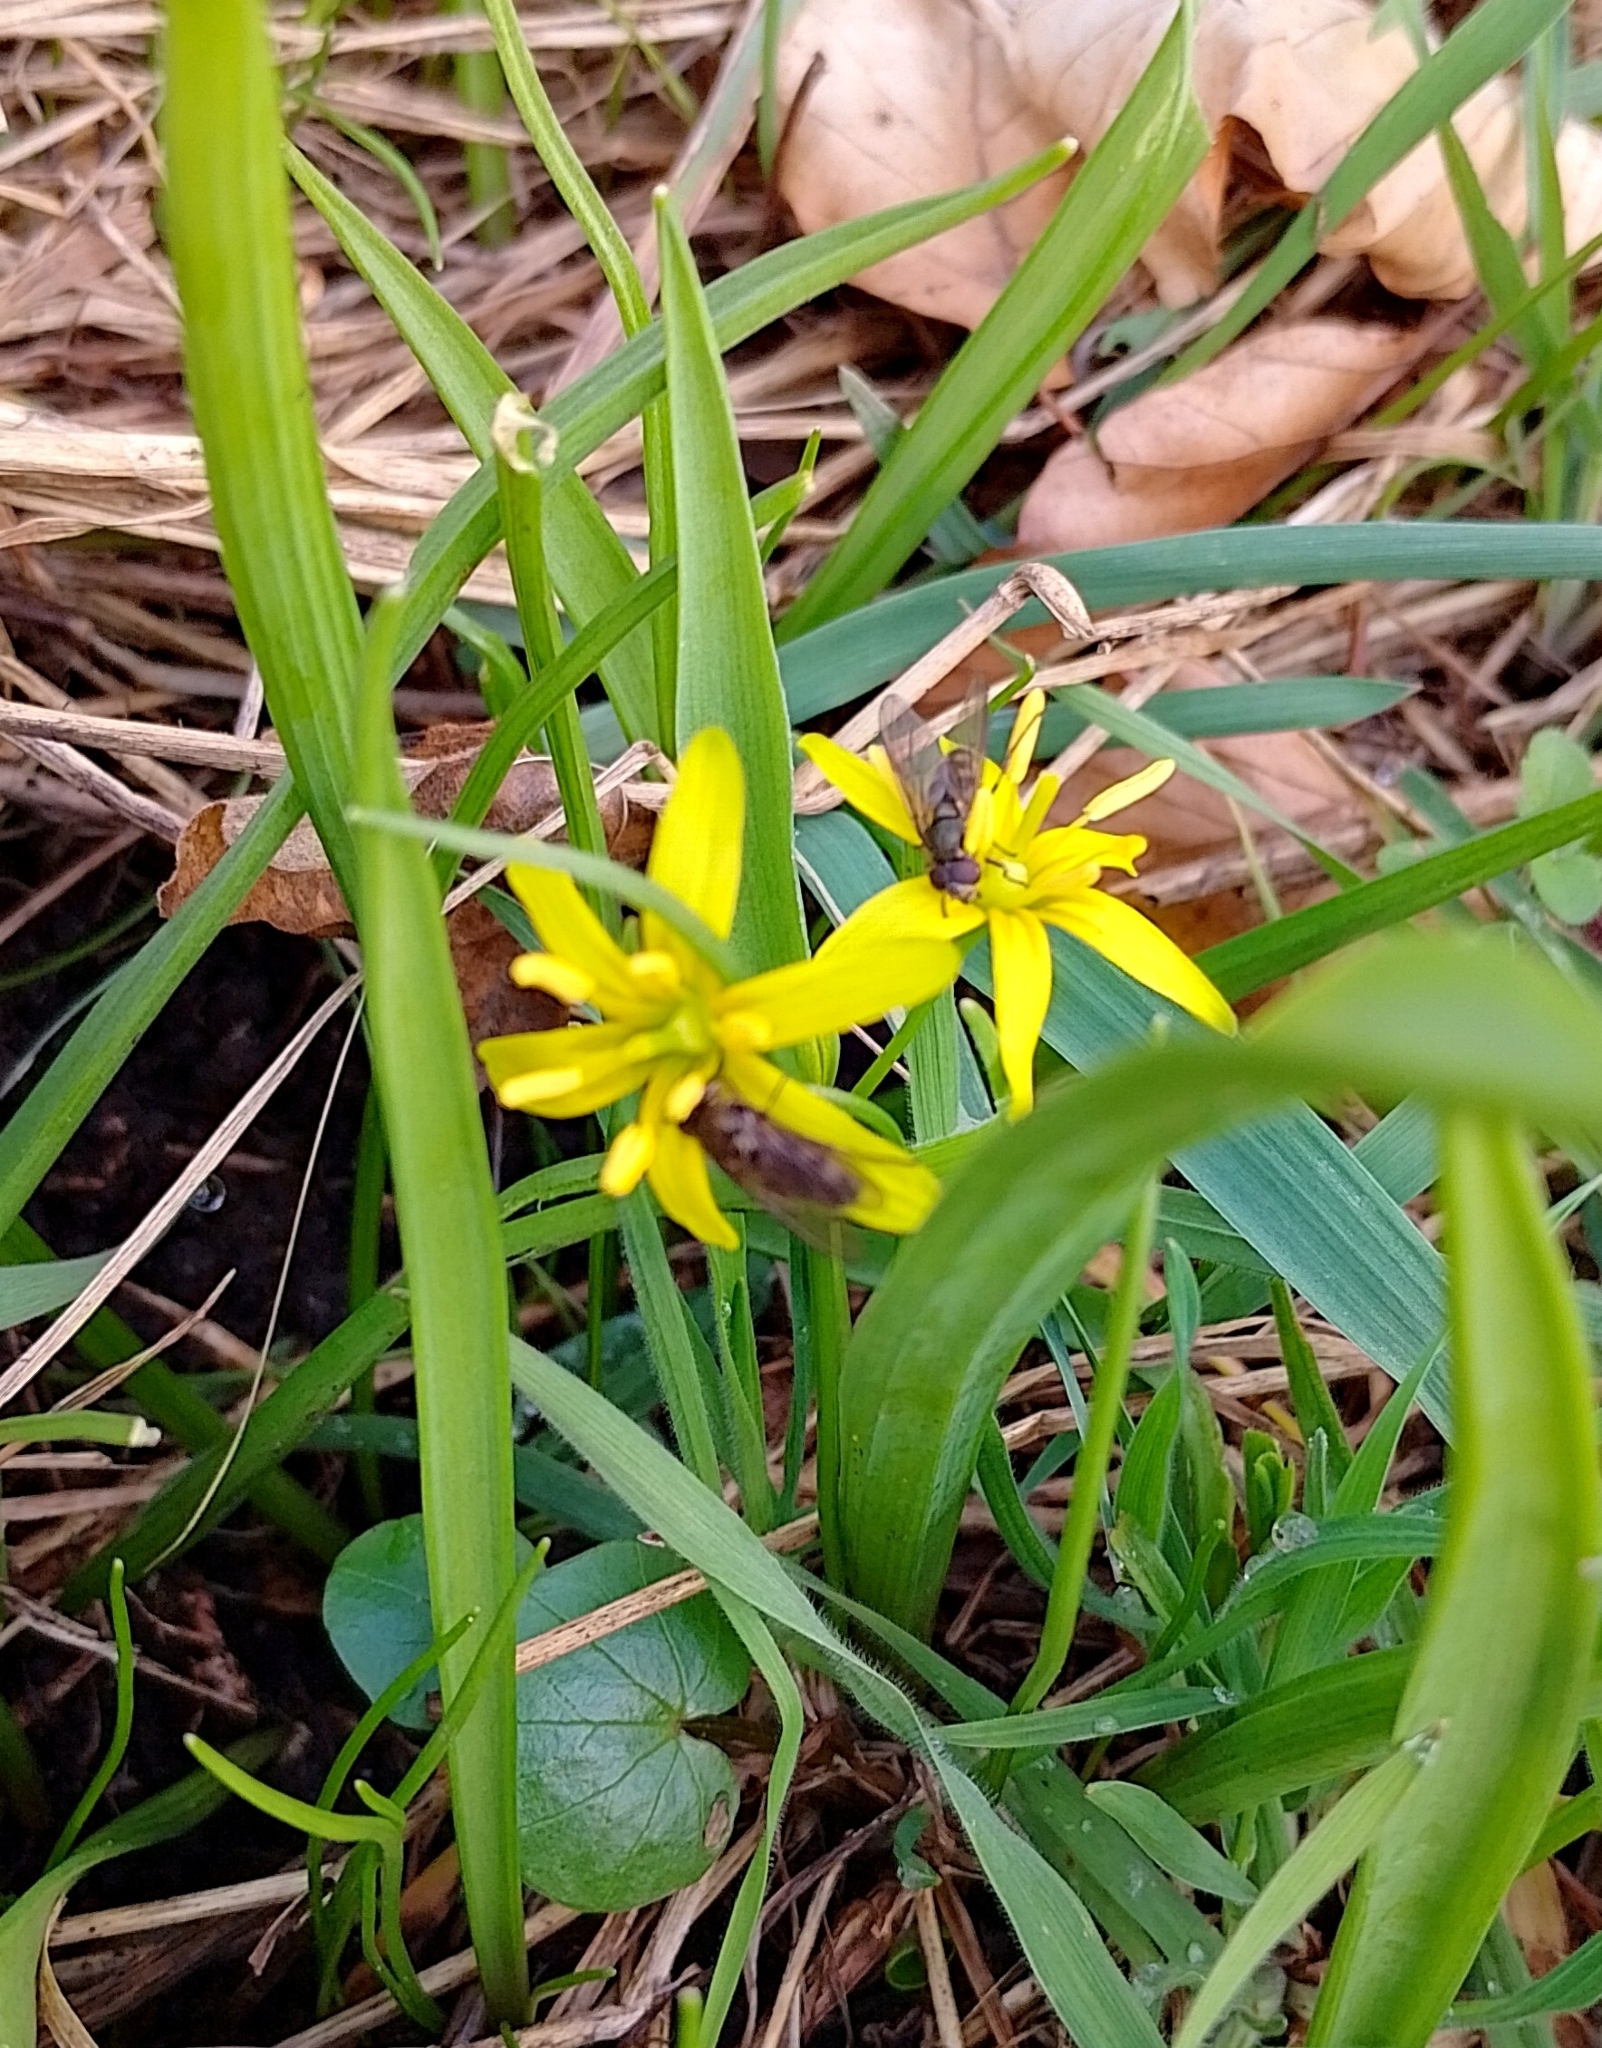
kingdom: Plantae
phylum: Tracheophyta
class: Liliopsida
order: Liliales
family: Liliaceae
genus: Gagea
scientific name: Gagea lutea
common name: Yellow star-of-bethlehem
